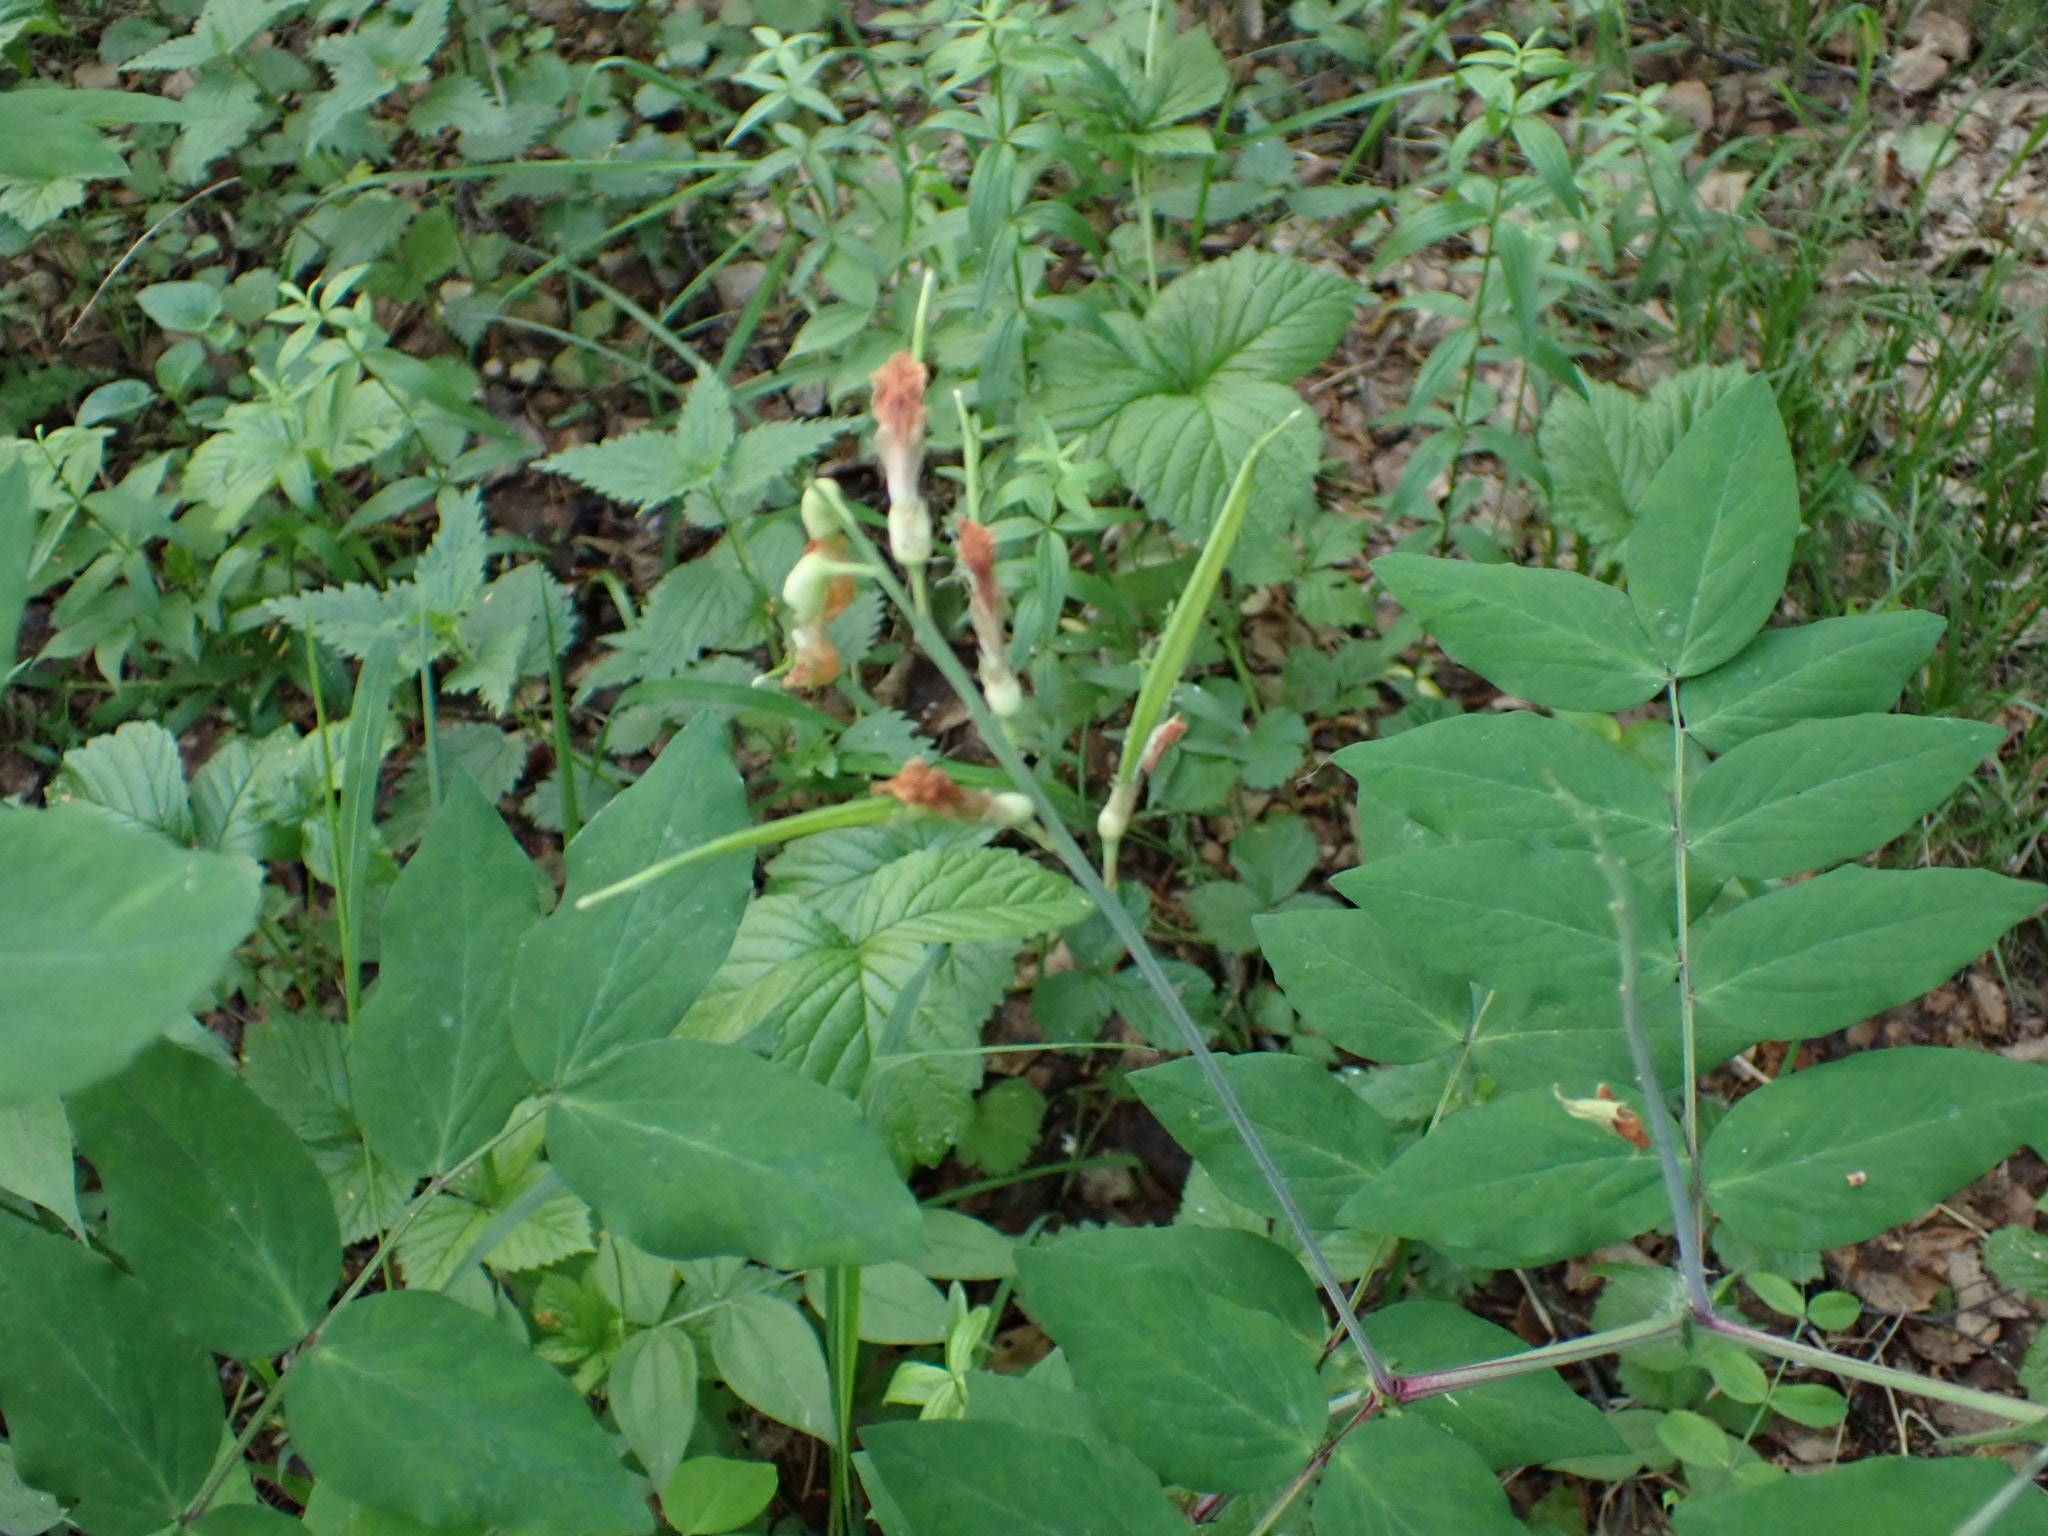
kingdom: Plantae
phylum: Tracheophyta
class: Magnoliopsida
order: Fabales
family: Fabaceae
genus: Lathyrus
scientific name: Lathyrus gmelinii
